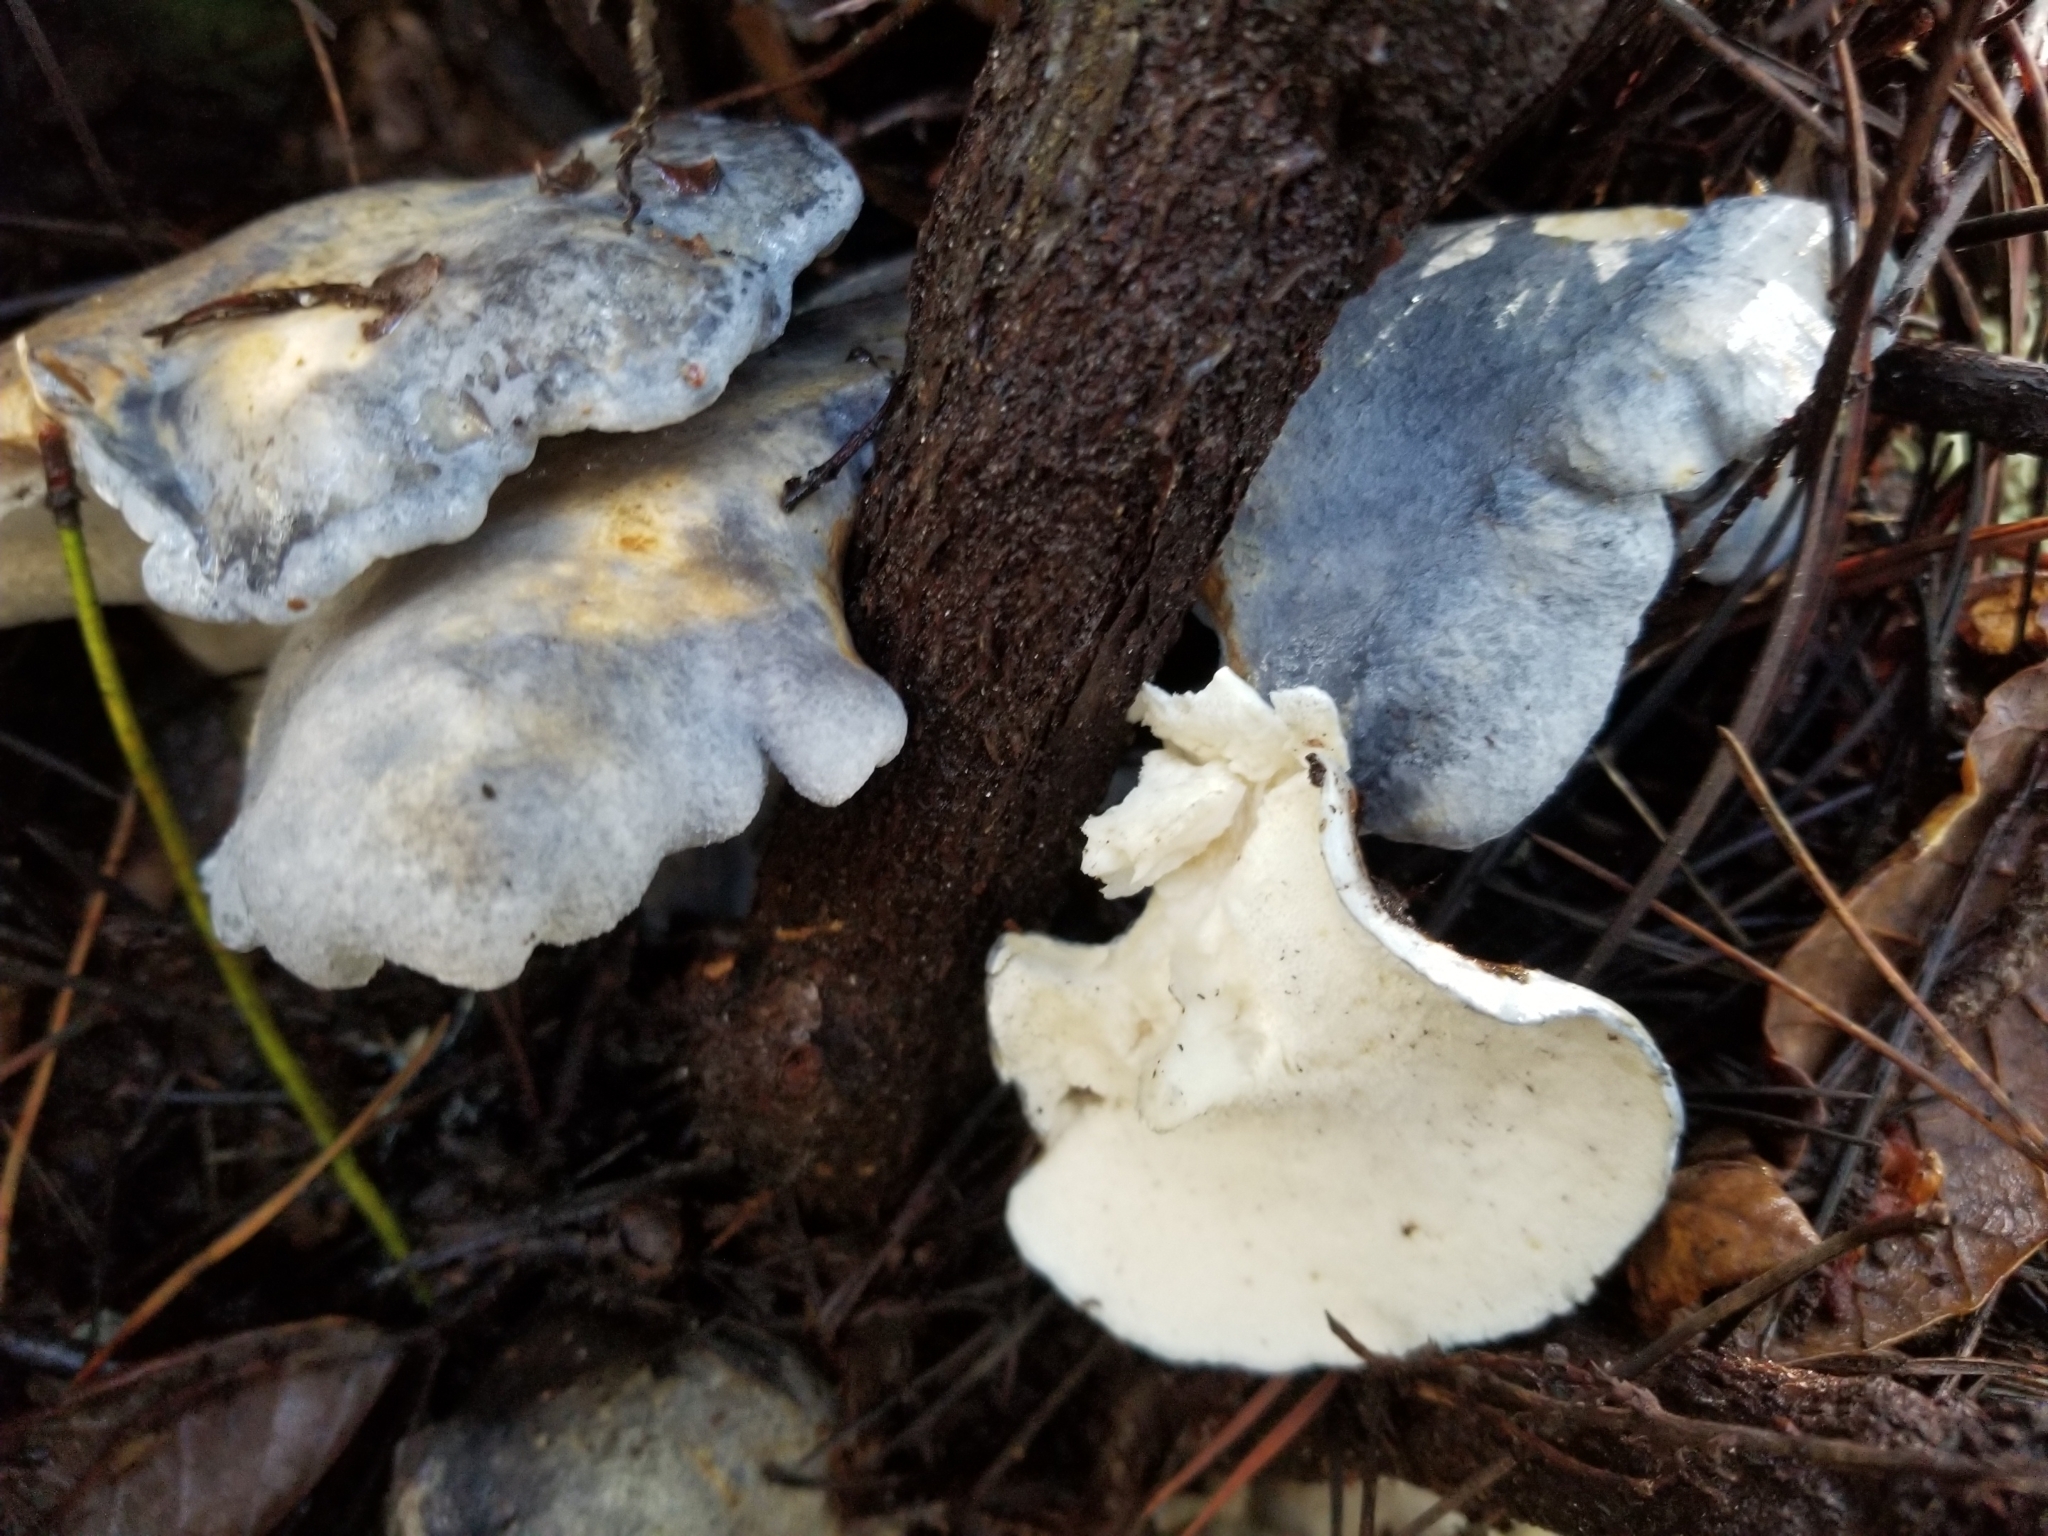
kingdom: Fungi
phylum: Basidiomycota
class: Agaricomycetes
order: Russulales
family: Albatrellaceae
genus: Albatrellopsis
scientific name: Albatrellopsis flettii
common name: Blue polypore
